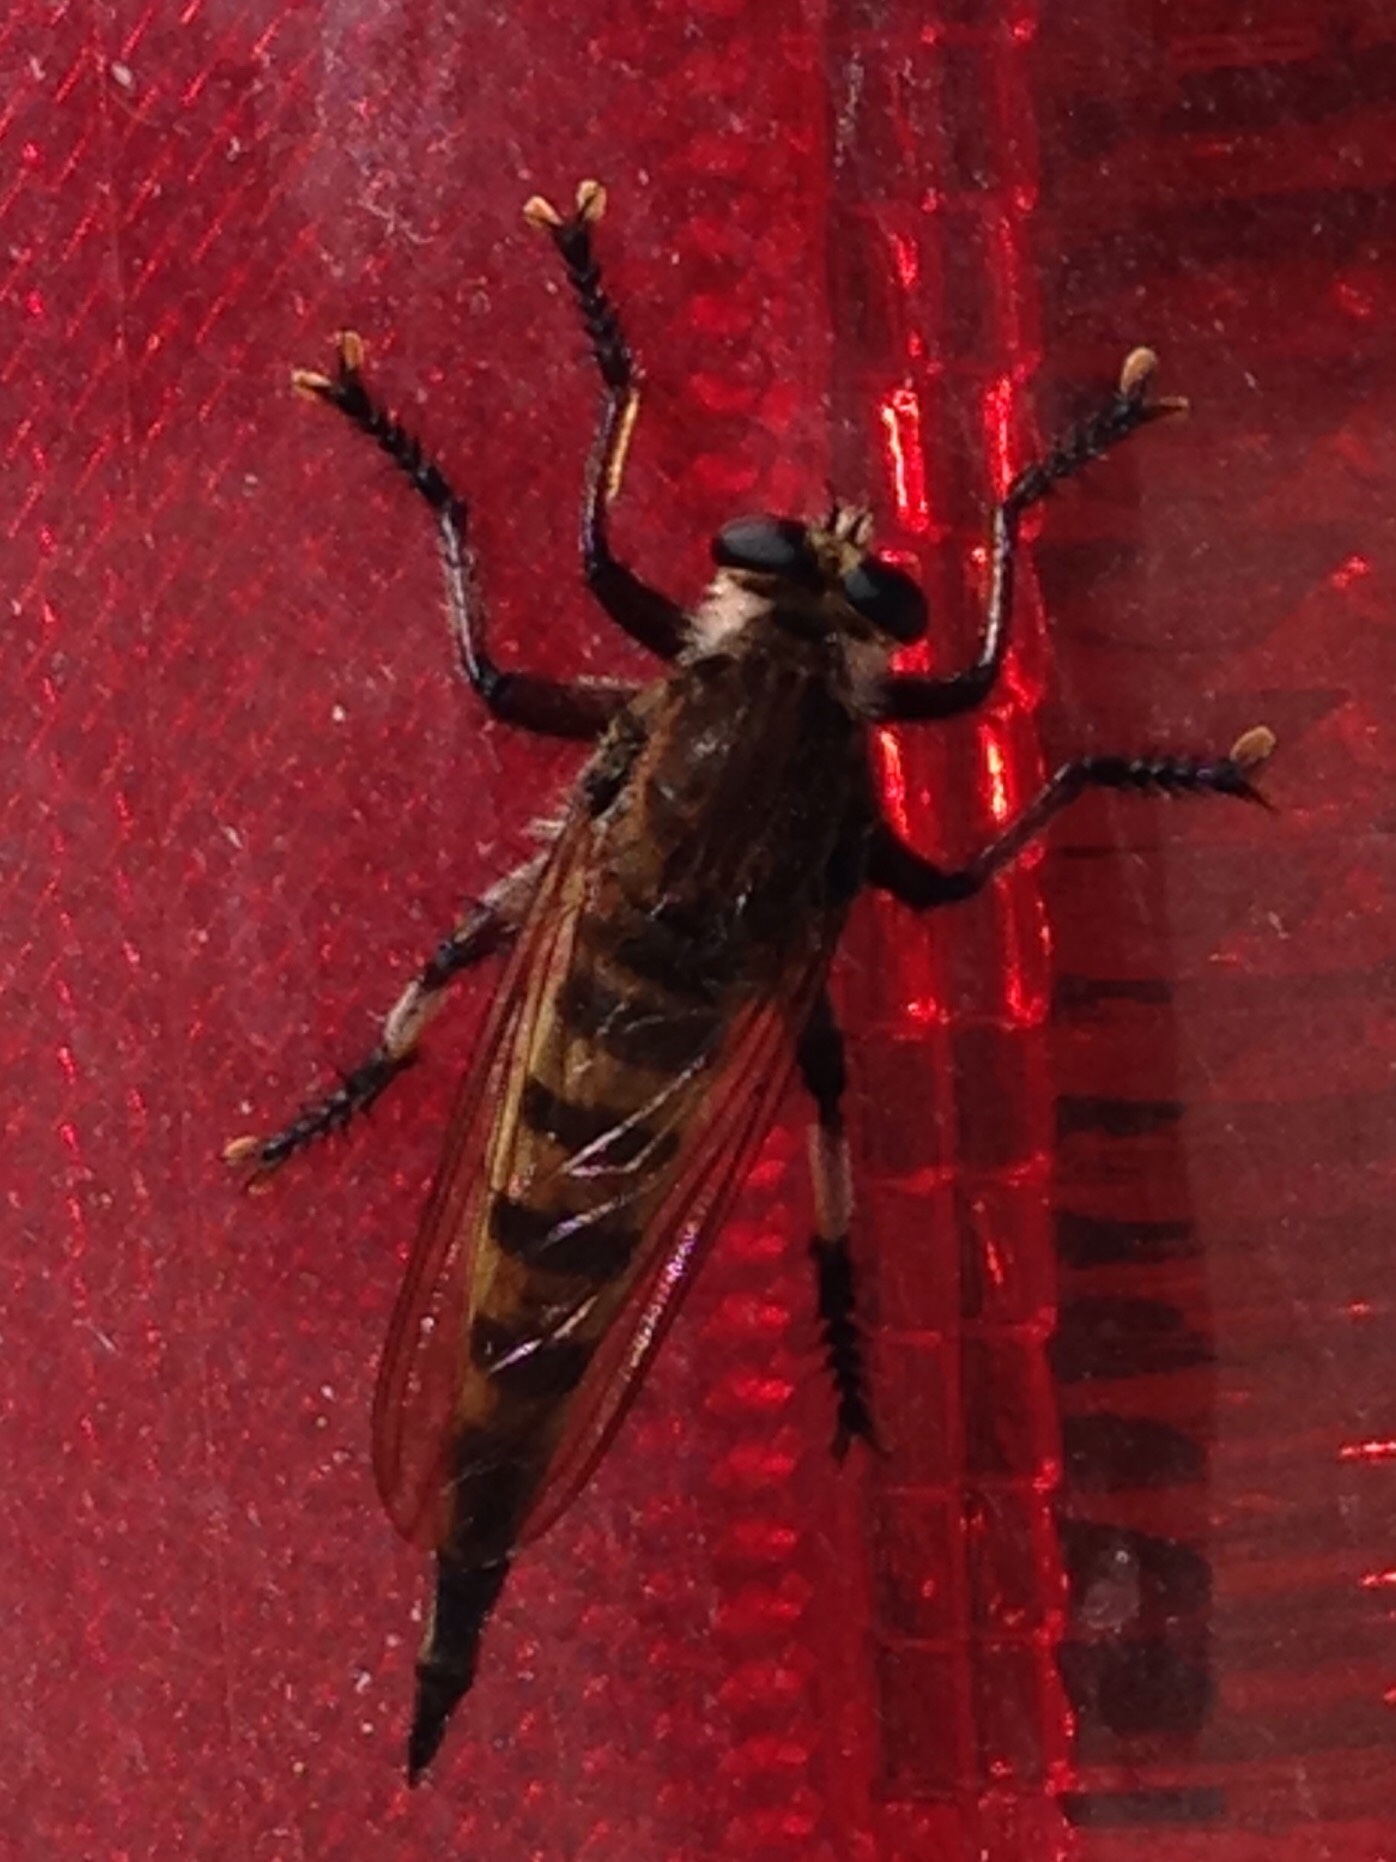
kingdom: Animalia
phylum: Arthropoda
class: Insecta
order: Diptera
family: Asilidae
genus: Promachus
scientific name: Promachus hinei
